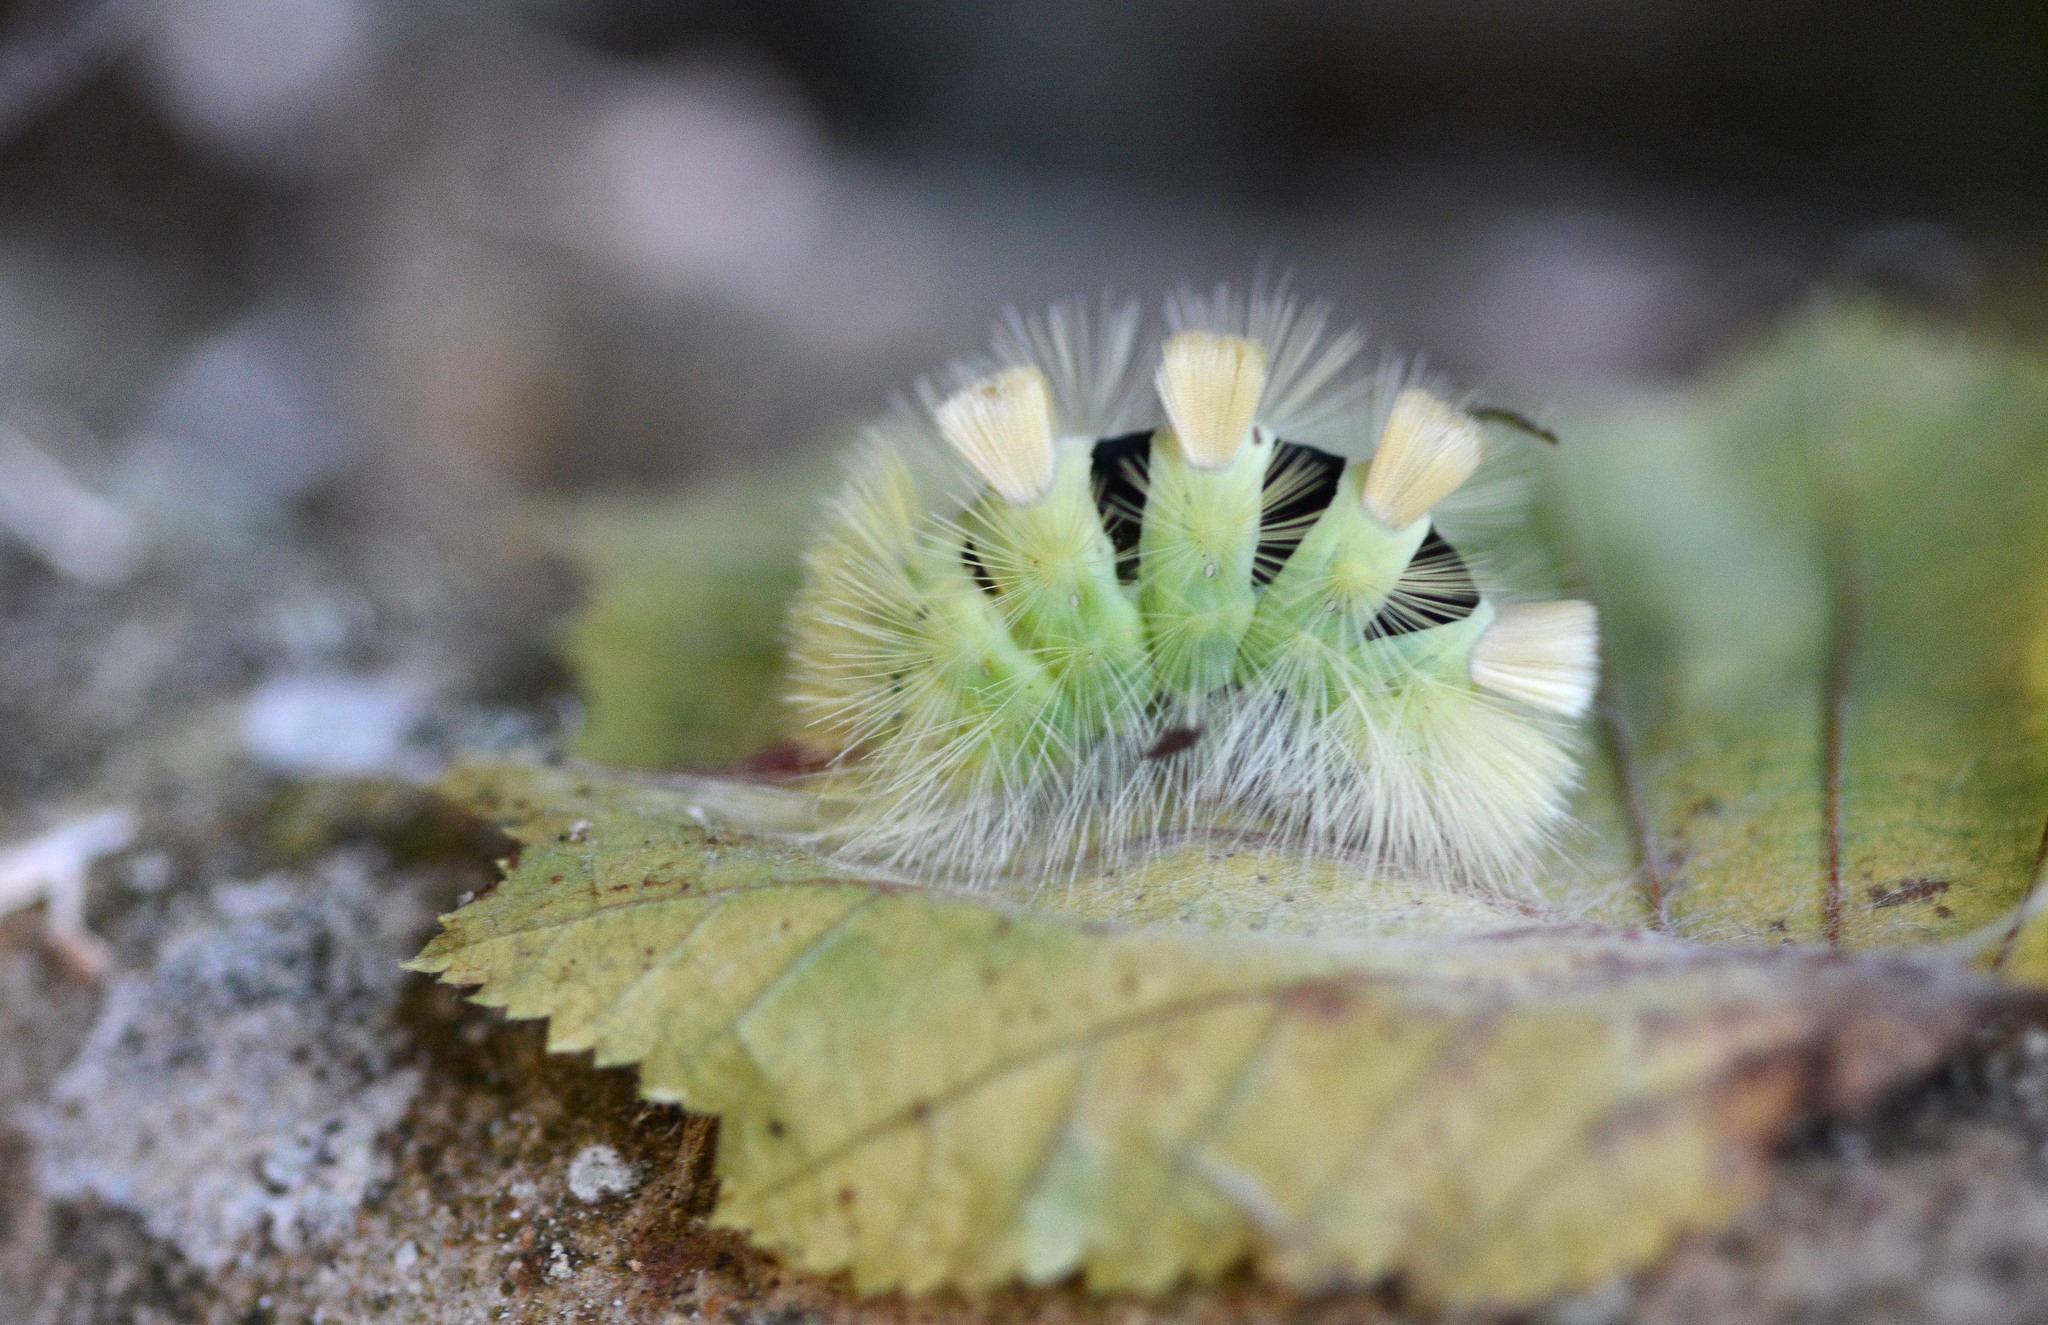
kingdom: Animalia
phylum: Arthropoda
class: Insecta
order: Lepidoptera
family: Erebidae
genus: Calliteara
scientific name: Calliteara pudibunda
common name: Pale tussock
